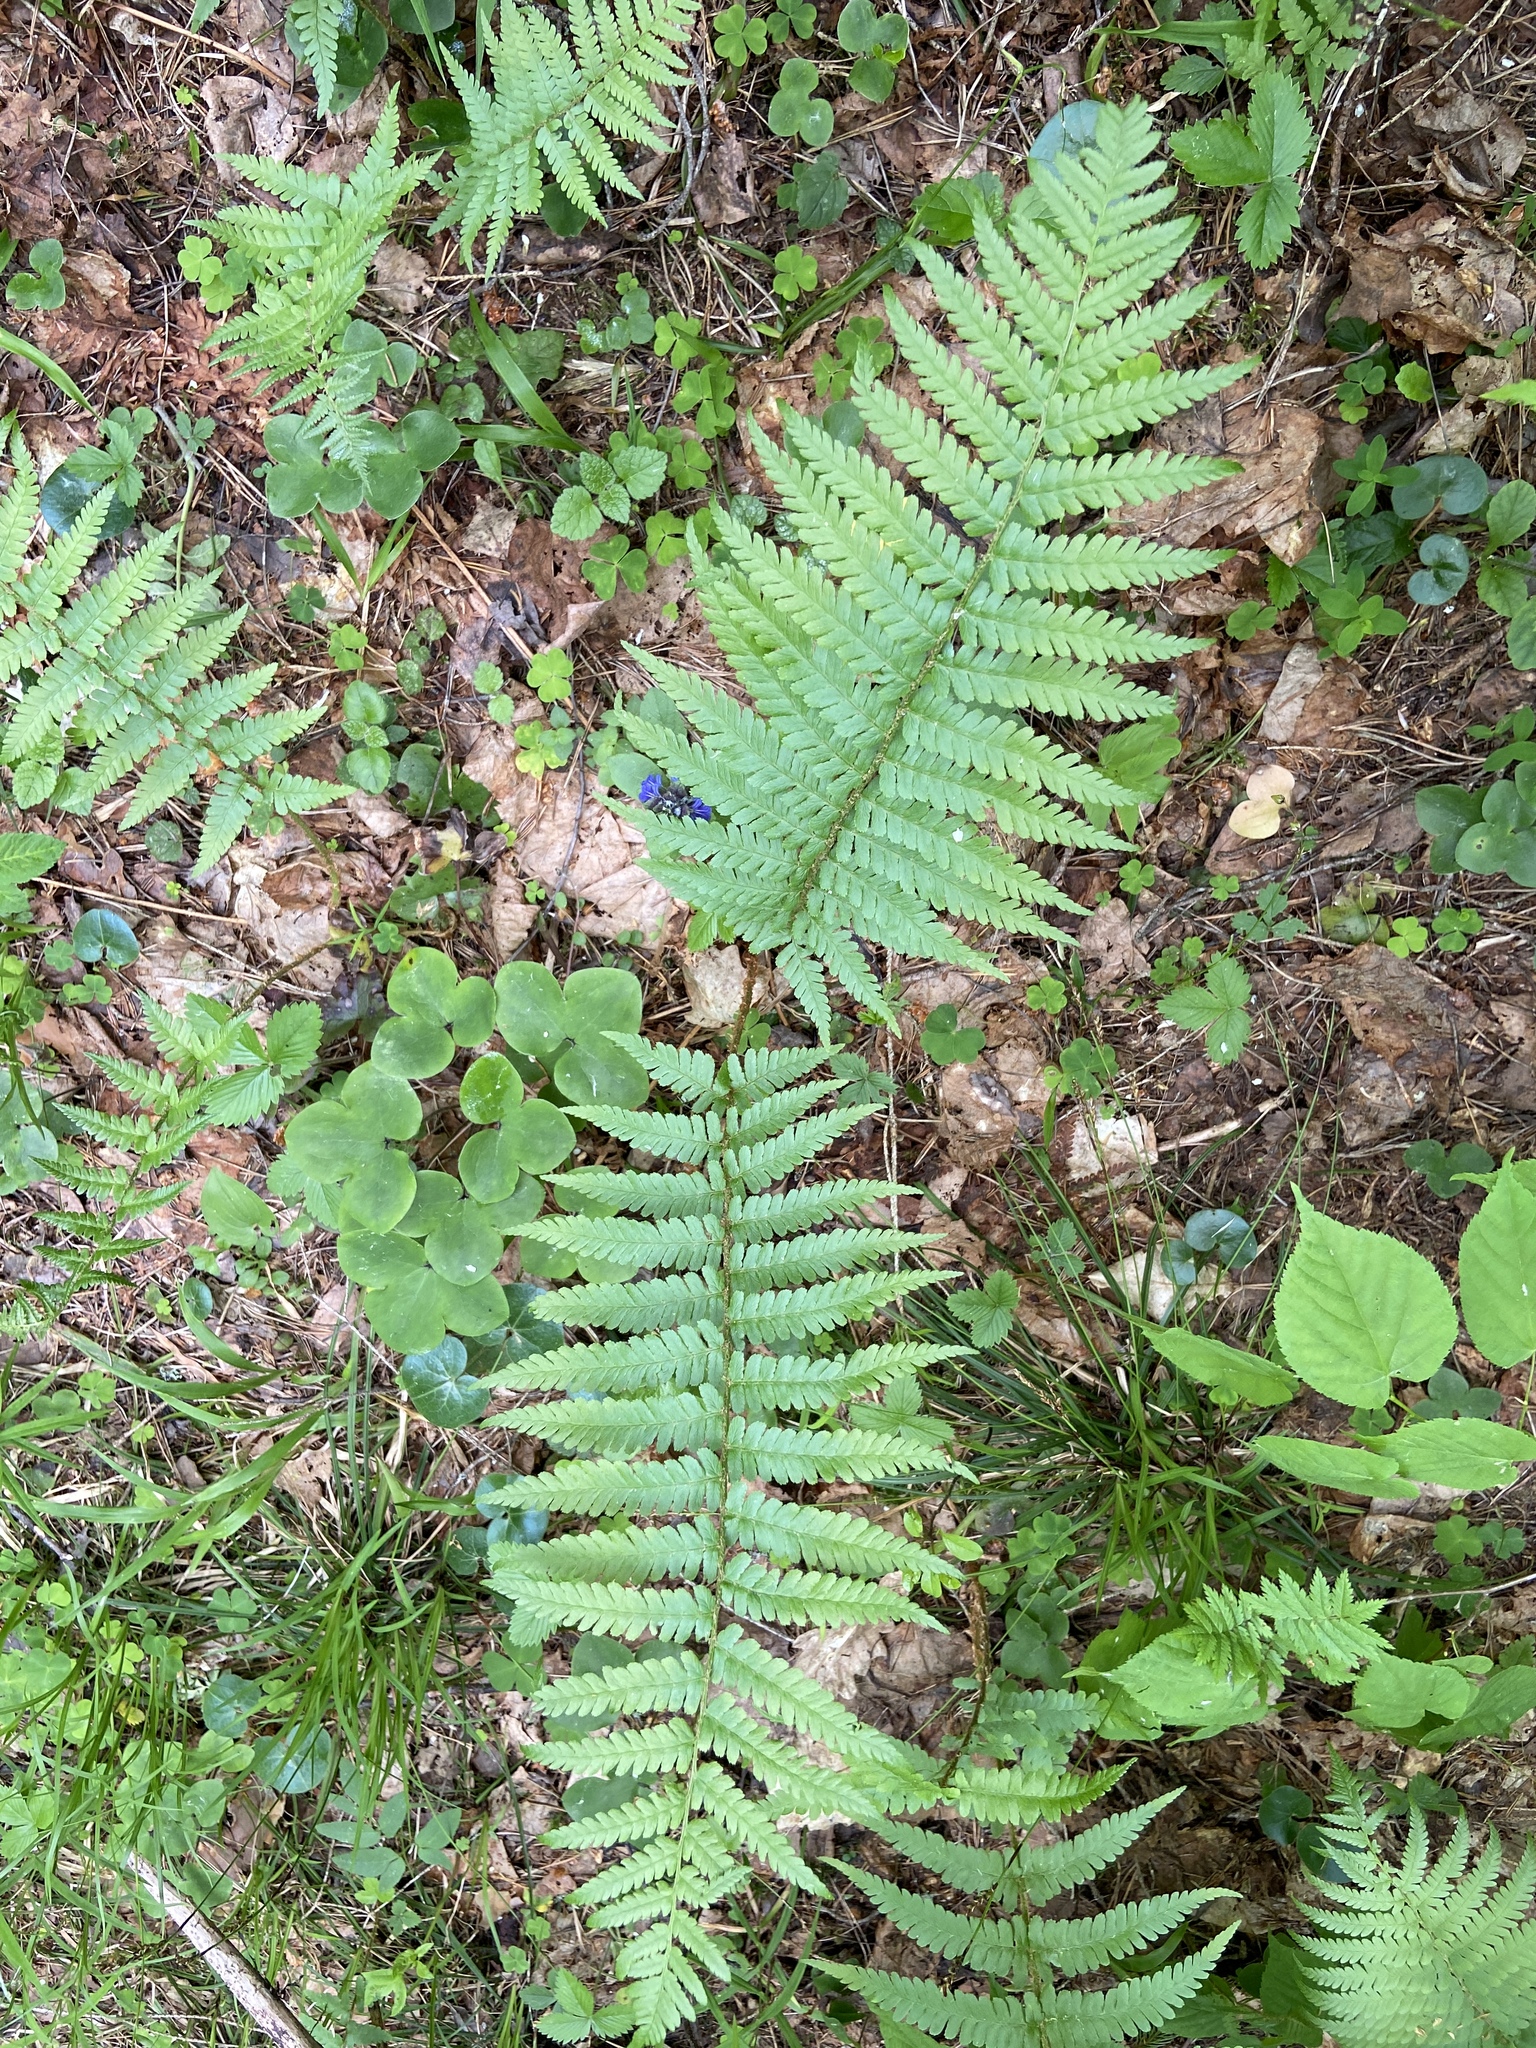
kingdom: Plantae
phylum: Tracheophyta
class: Polypodiopsida
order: Polypodiales
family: Dryopteridaceae
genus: Dryopteris
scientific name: Dryopteris filix-mas
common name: Male fern
